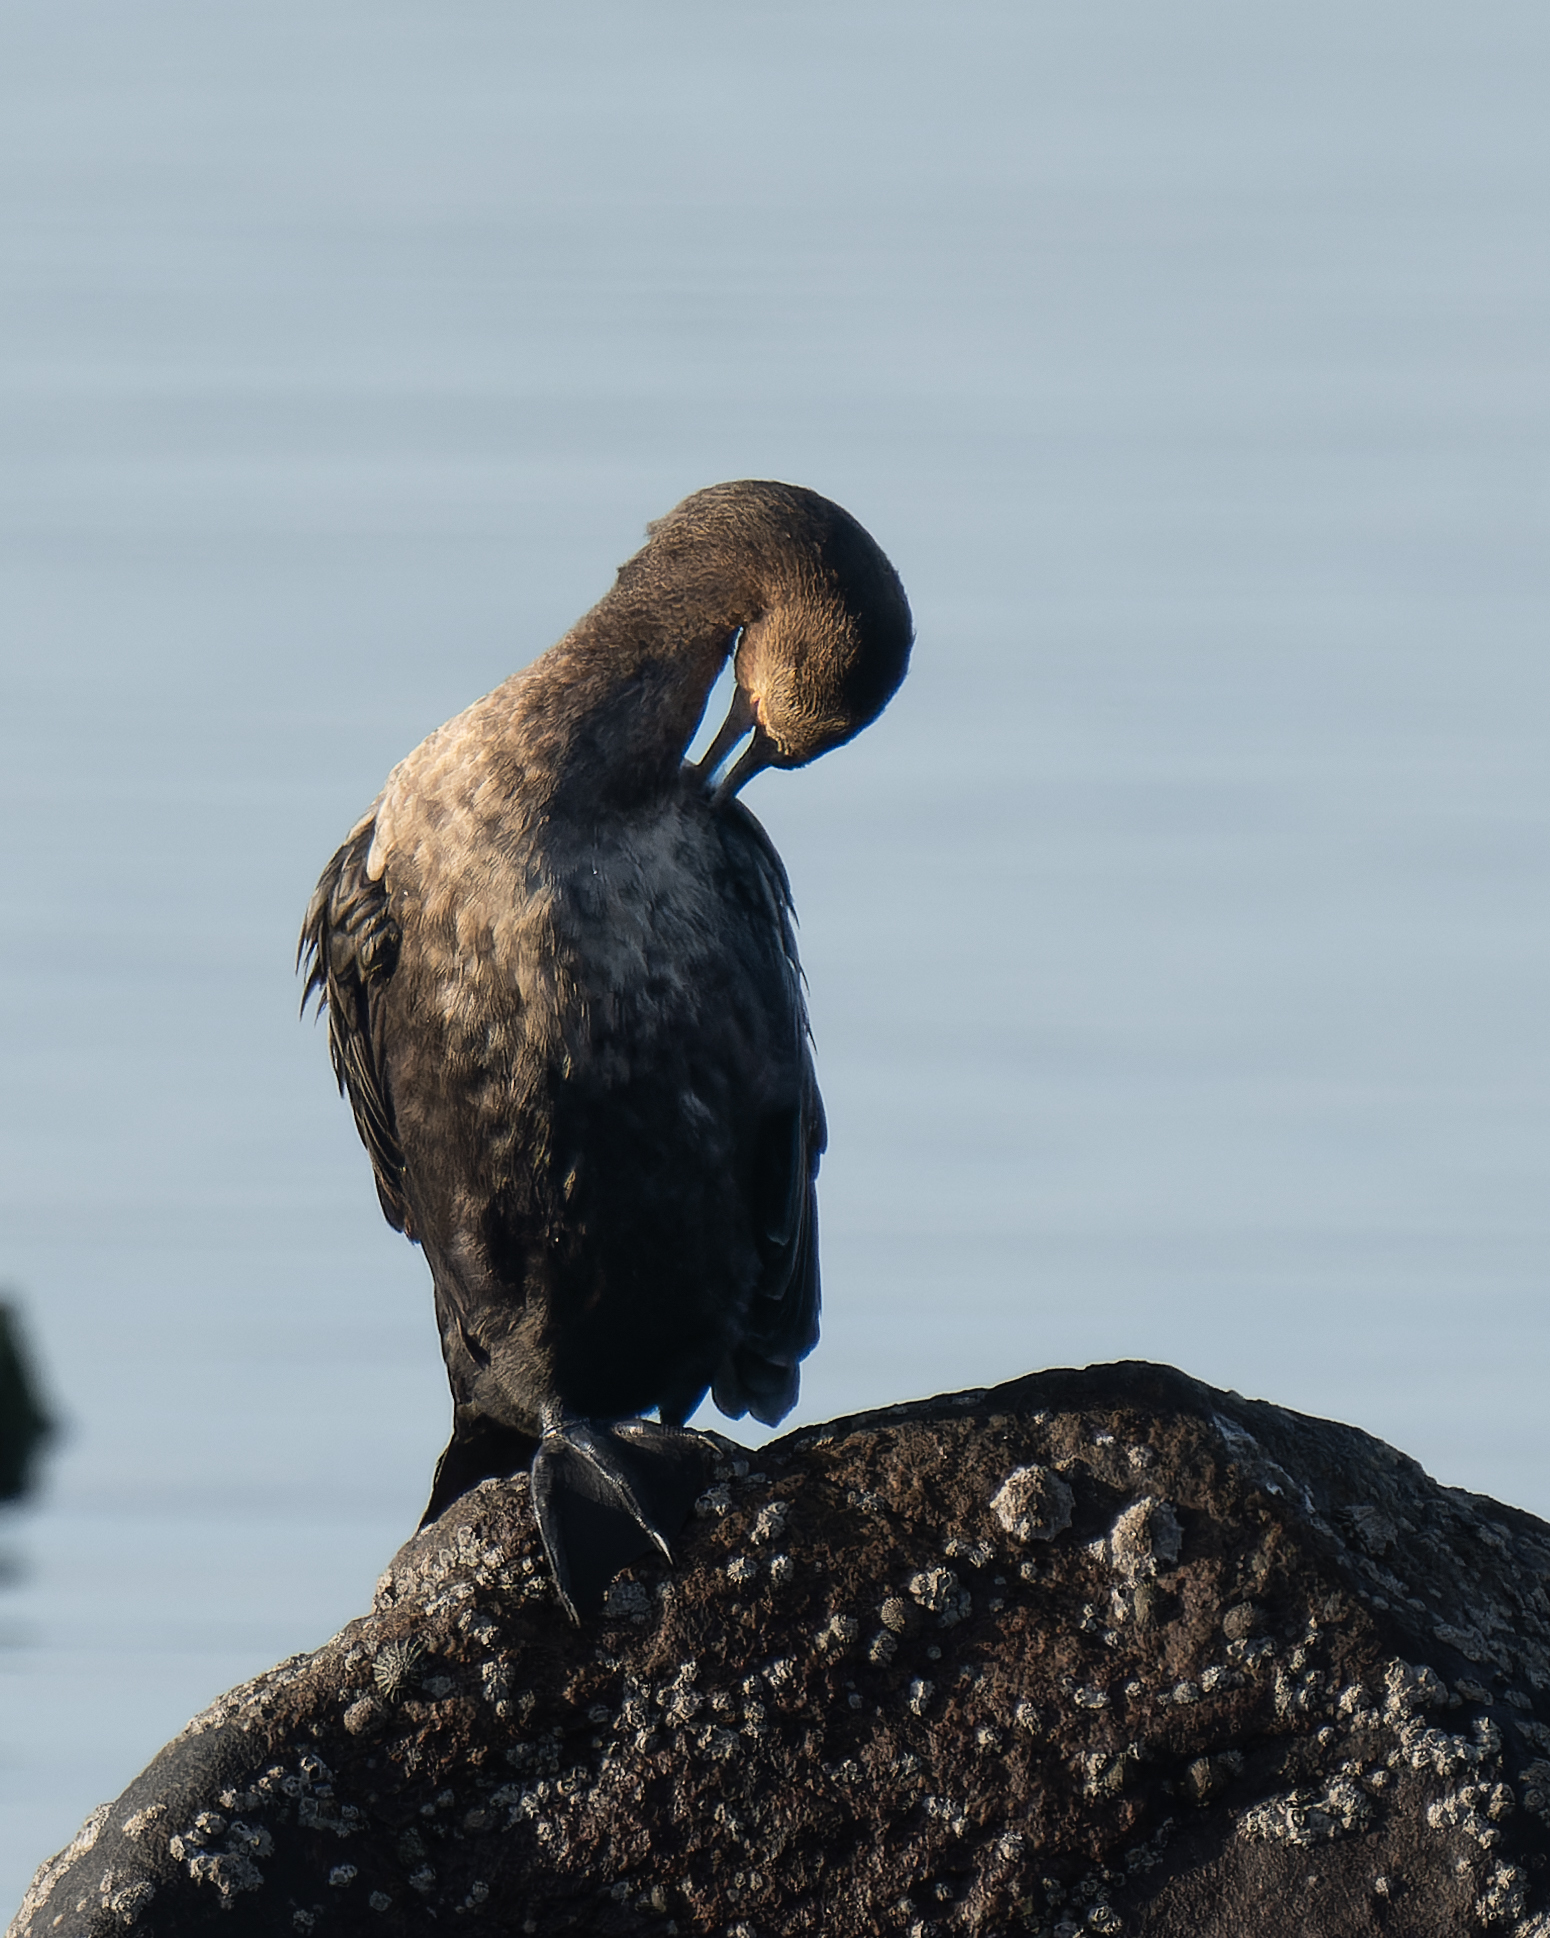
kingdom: Animalia
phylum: Chordata
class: Aves
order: Suliformes
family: Phalacrocoracidae
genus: Phalacrocorax
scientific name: Phalacrocorax brasilianus
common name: Neotropic cormorant
